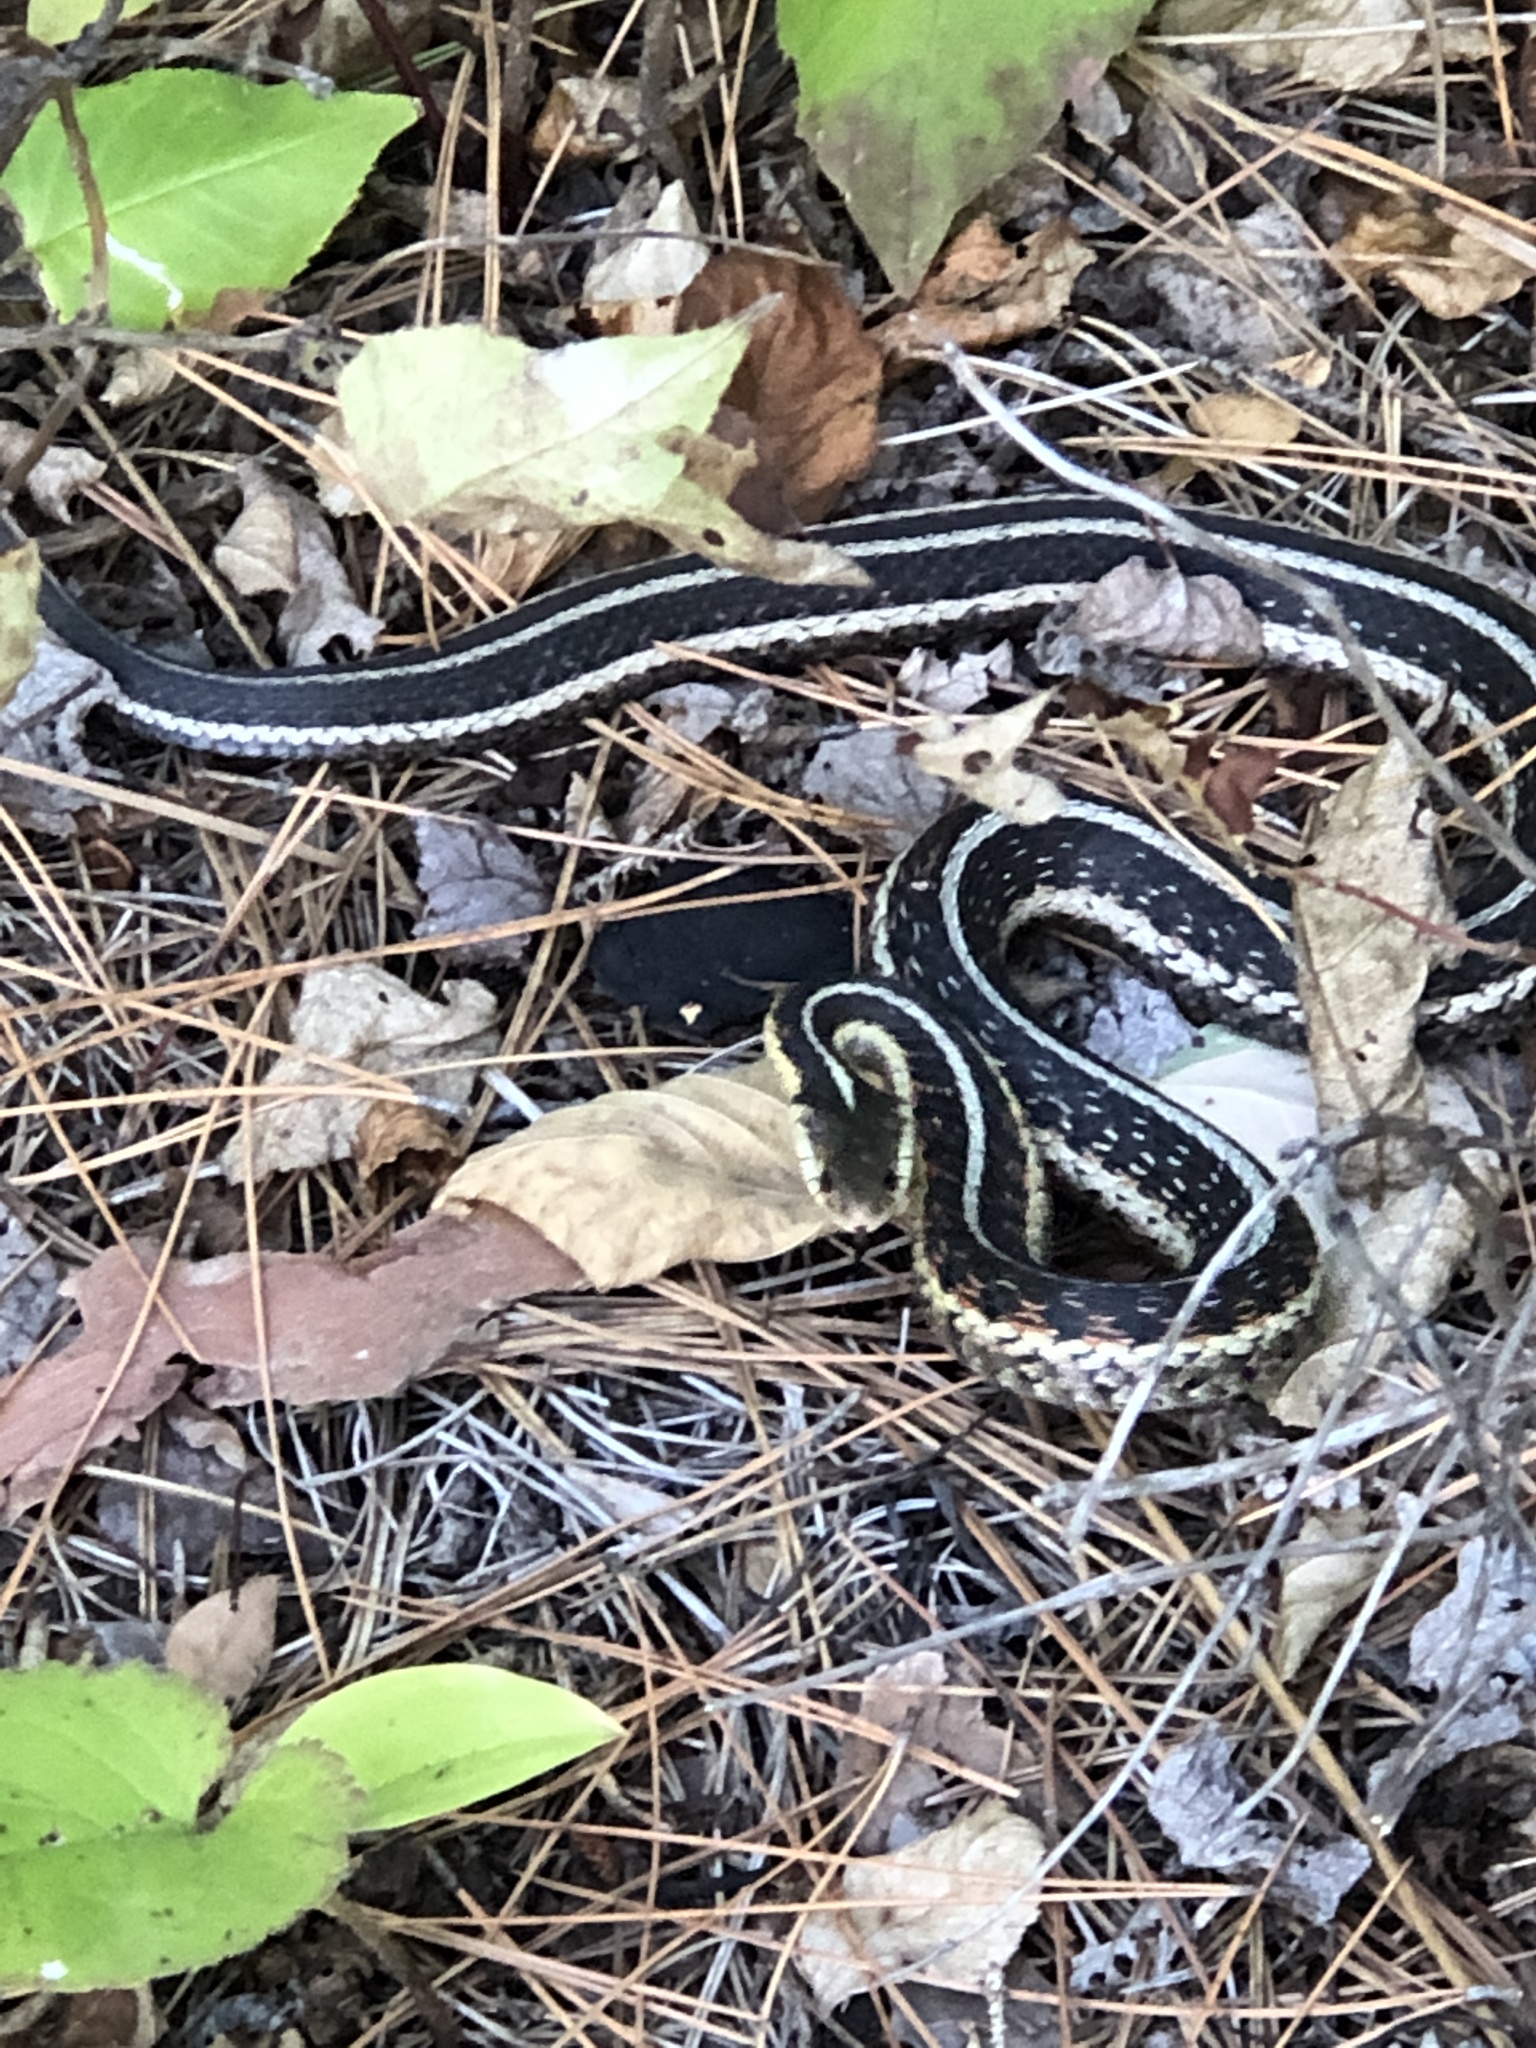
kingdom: Animalia
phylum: Chordata
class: Squamata
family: Colubridae
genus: Thamnophis
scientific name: Thamnophis sirtalis
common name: Common garter snake
